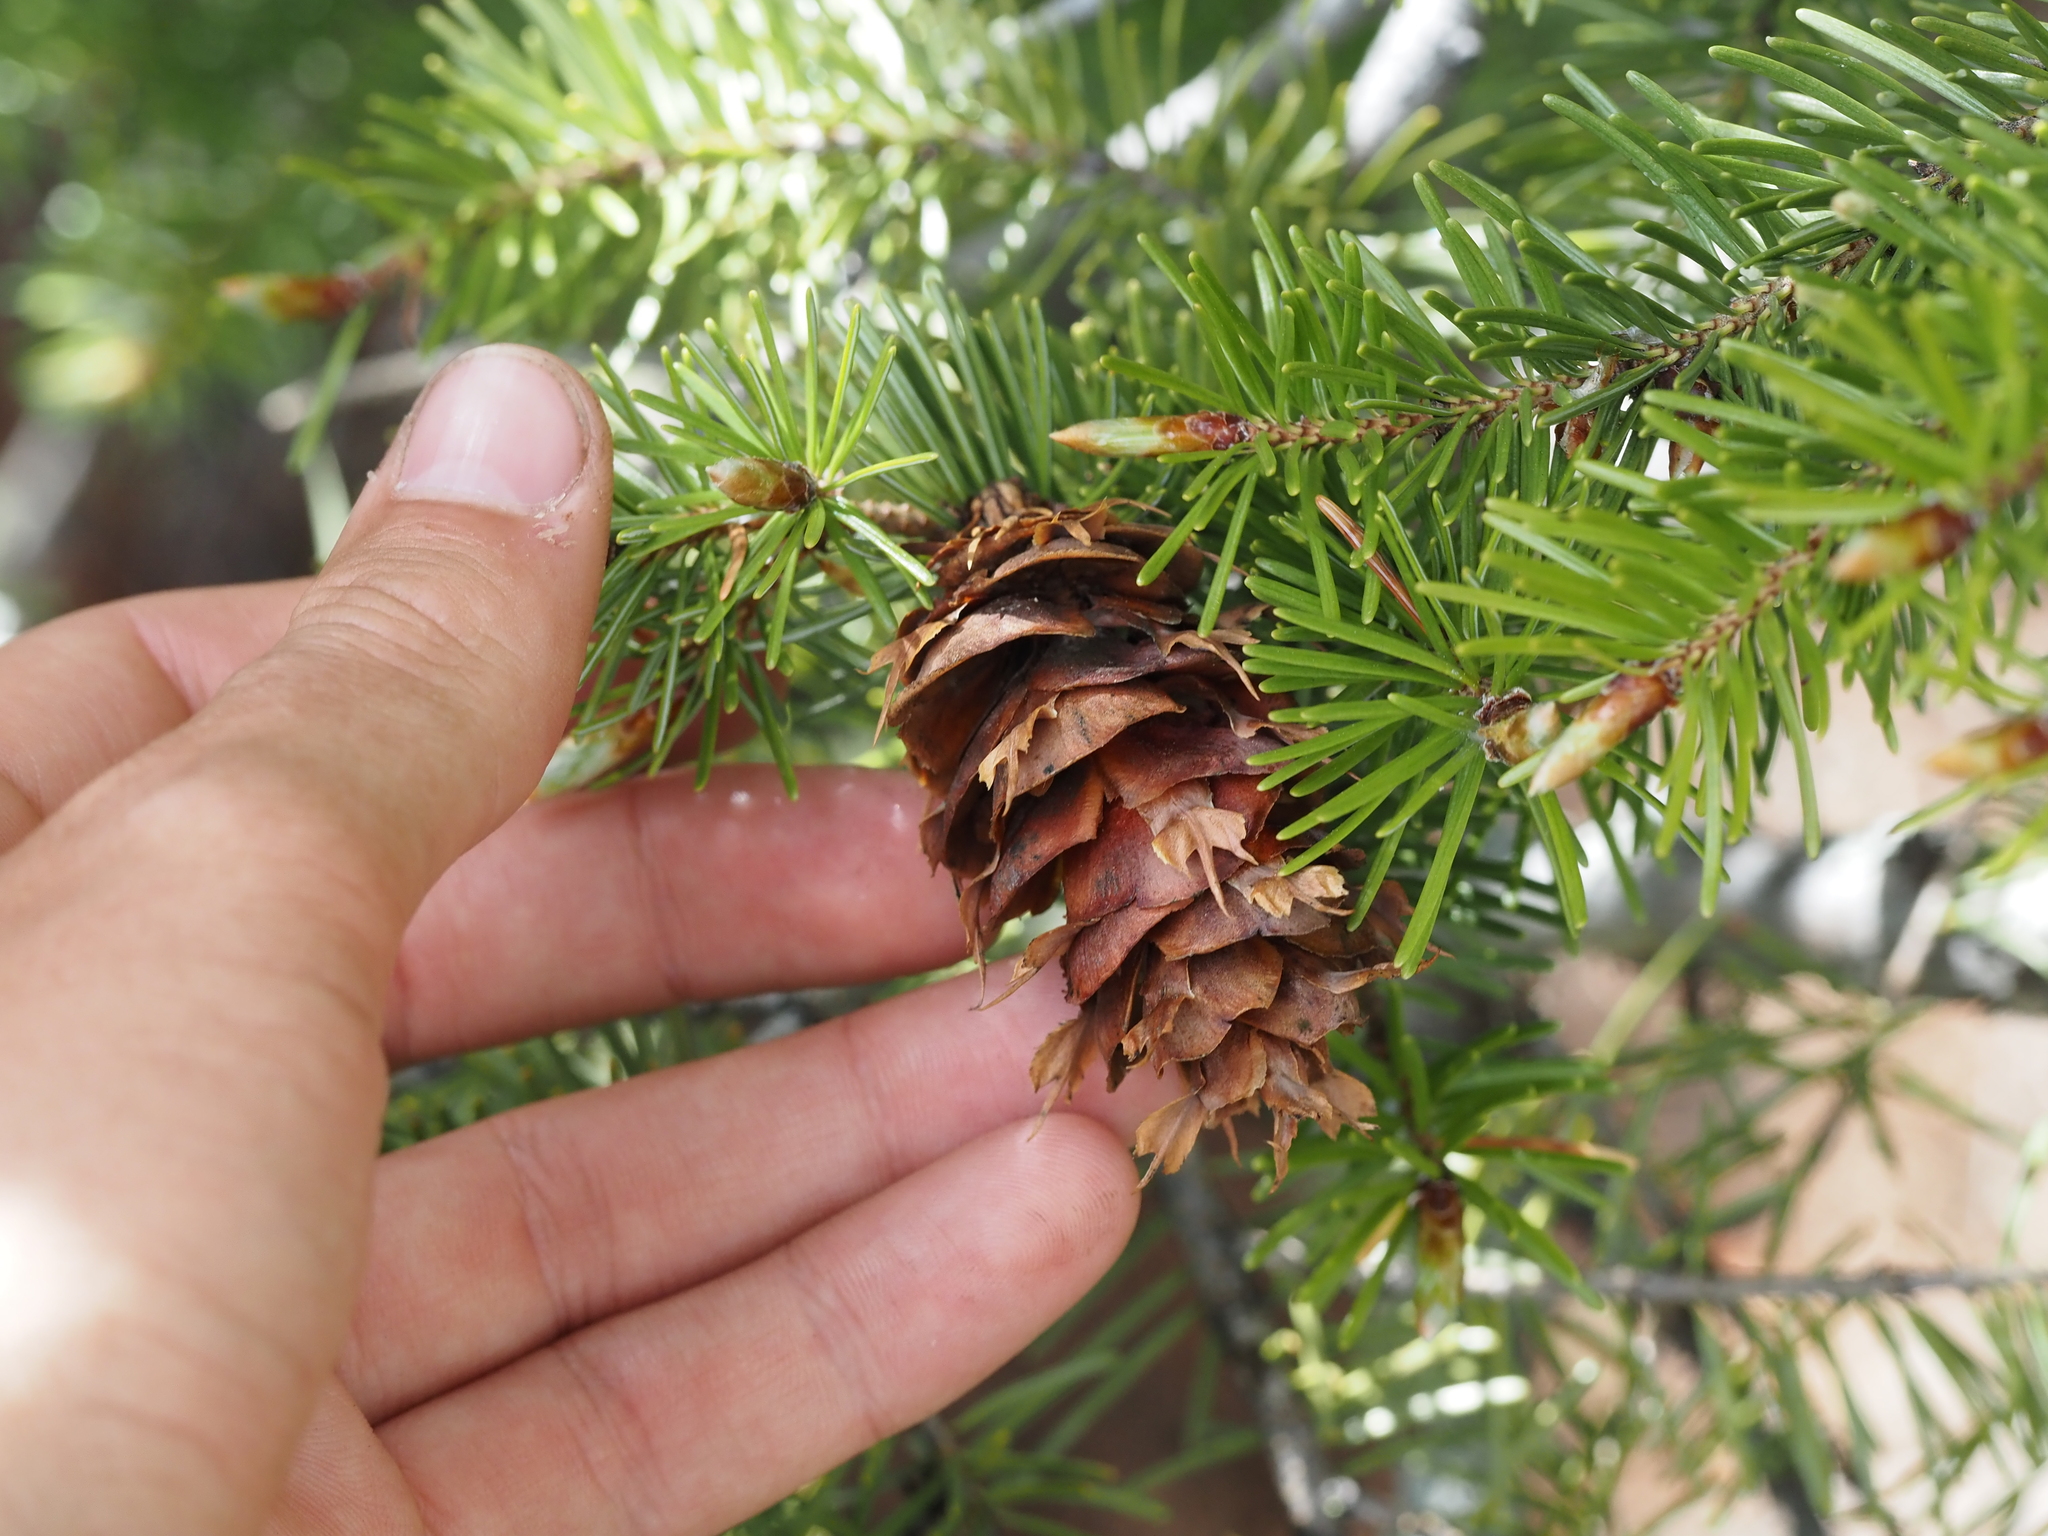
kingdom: Plantae
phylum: Tracheophyta
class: Pinopsida
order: Pinales
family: Pinaceae
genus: Pseudotsuga
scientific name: Pseudotsuga menziesii
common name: Douglas fir
